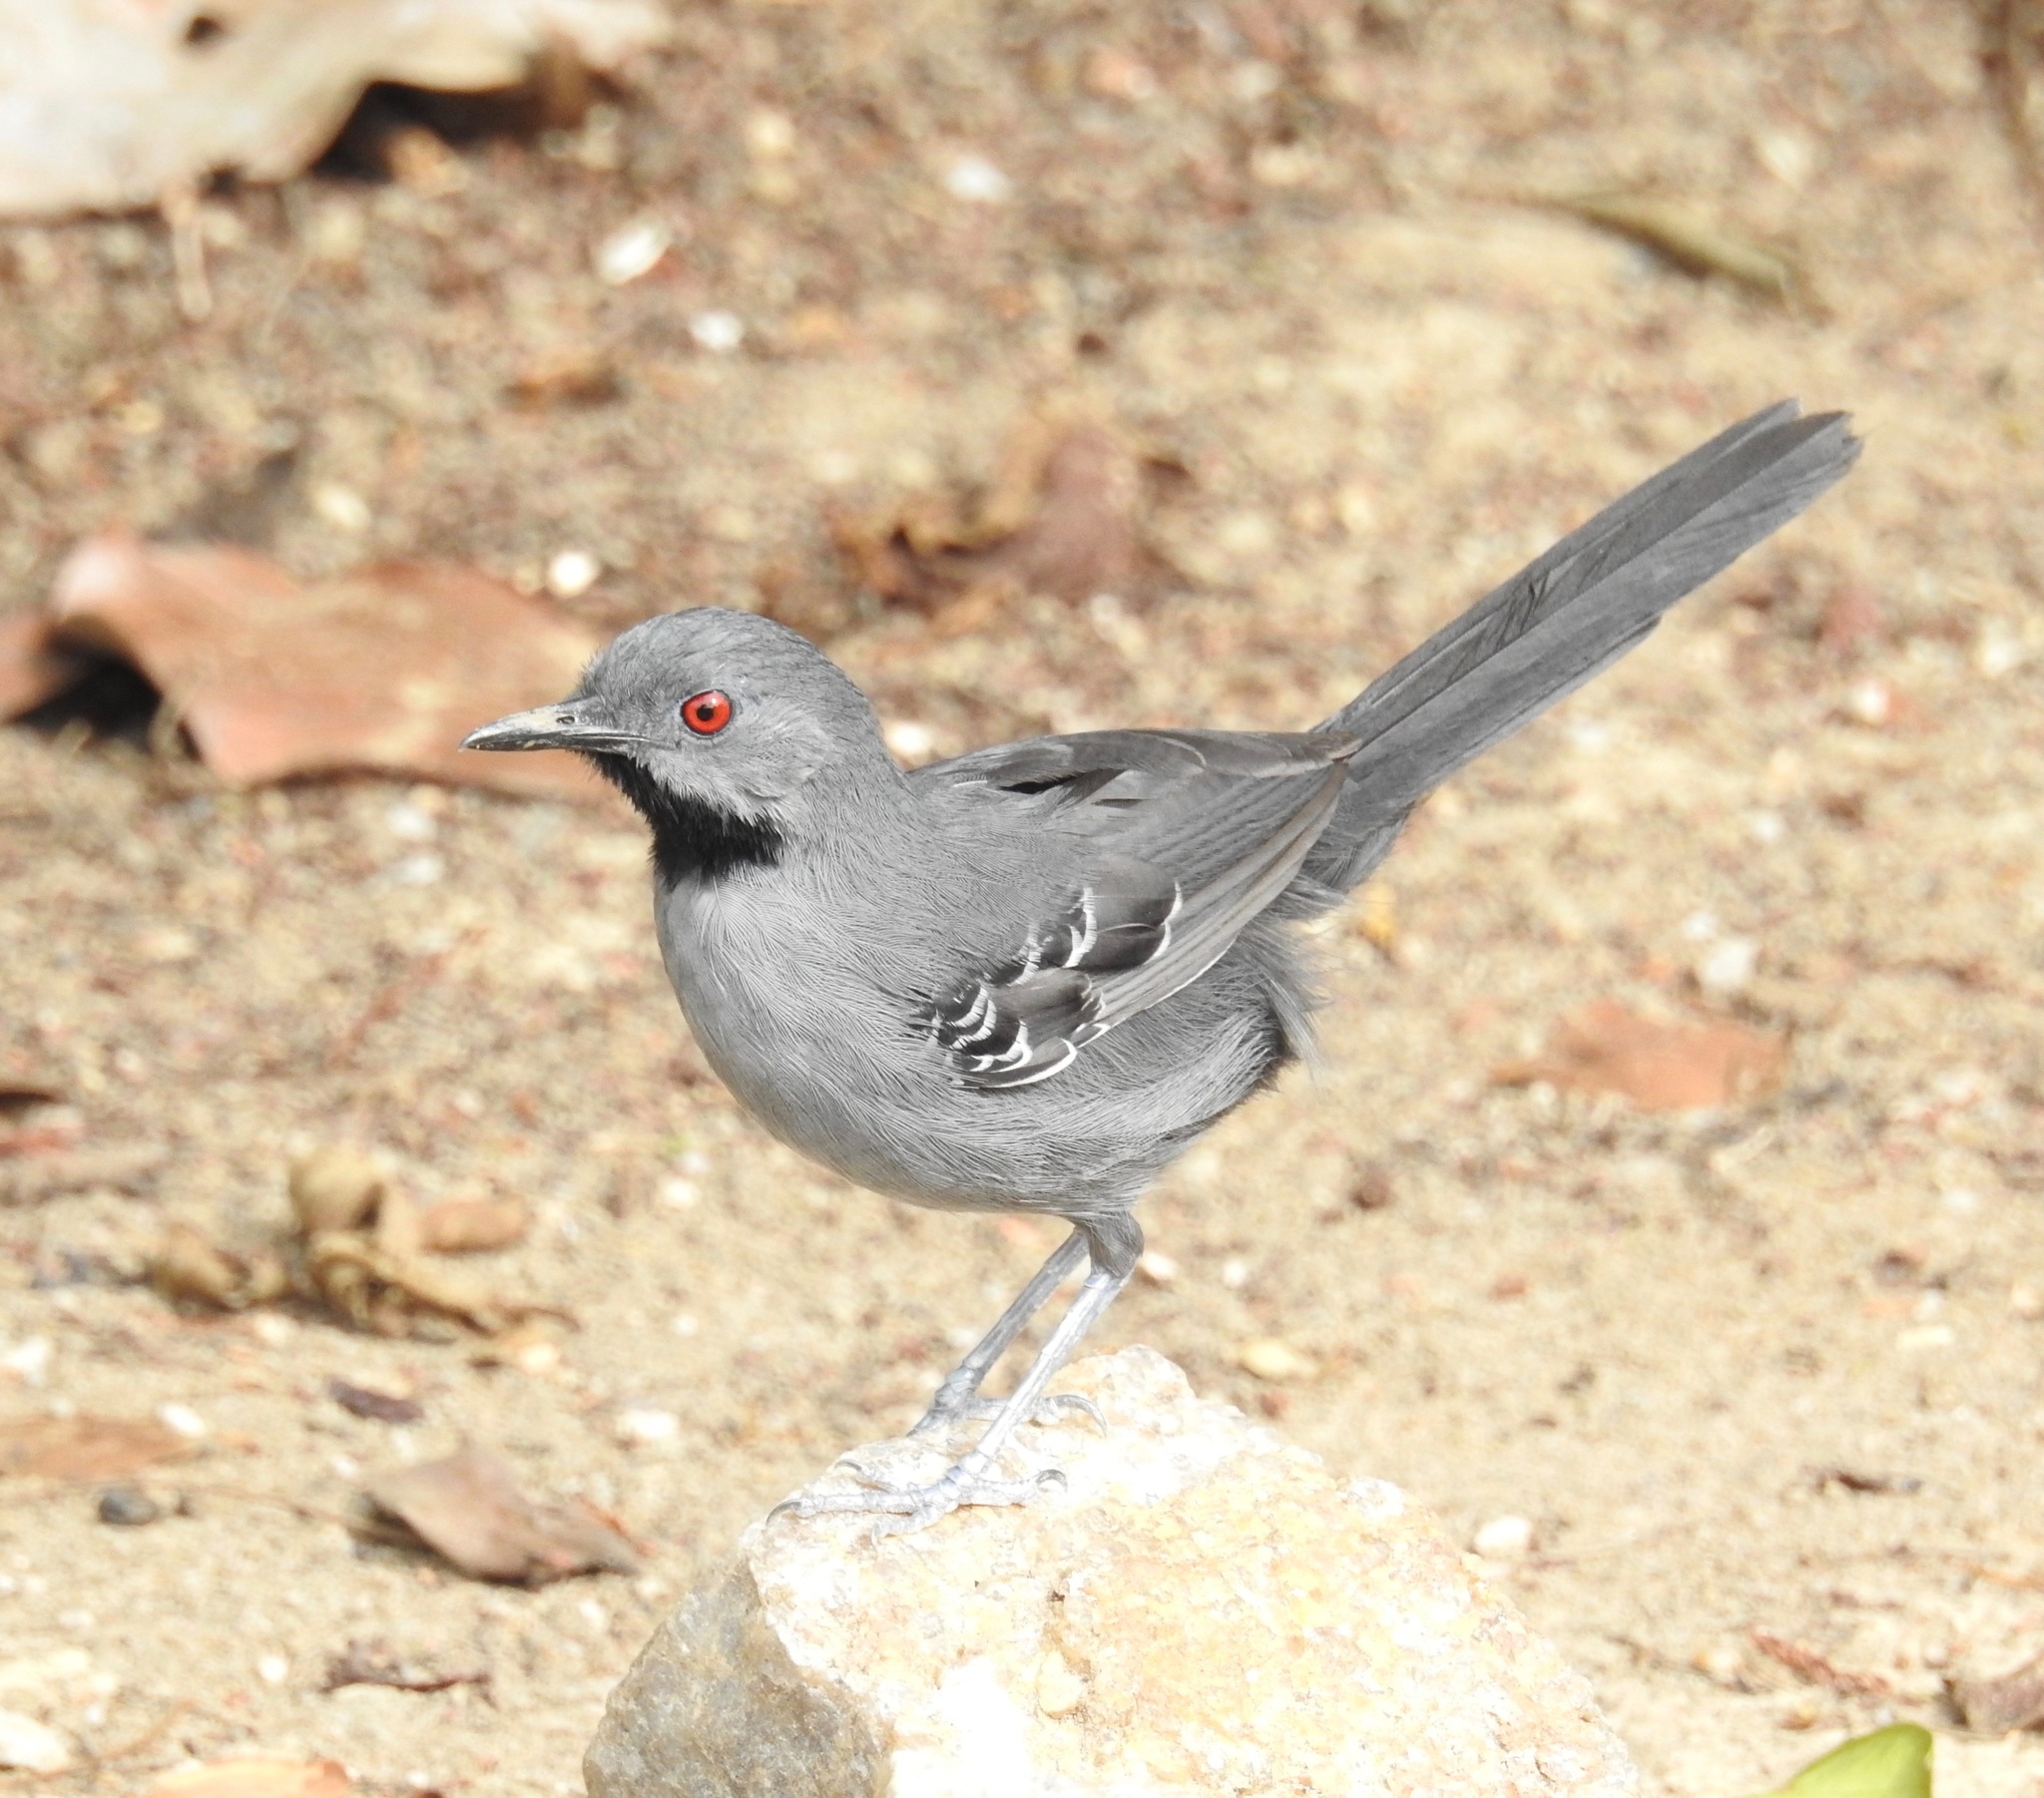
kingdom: Animalia
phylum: Chordata
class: Aves
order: Passeriformes
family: Thamnophilidae
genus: Rhopornis
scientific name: Rhopornis ardesiacus
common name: Slender antbird
